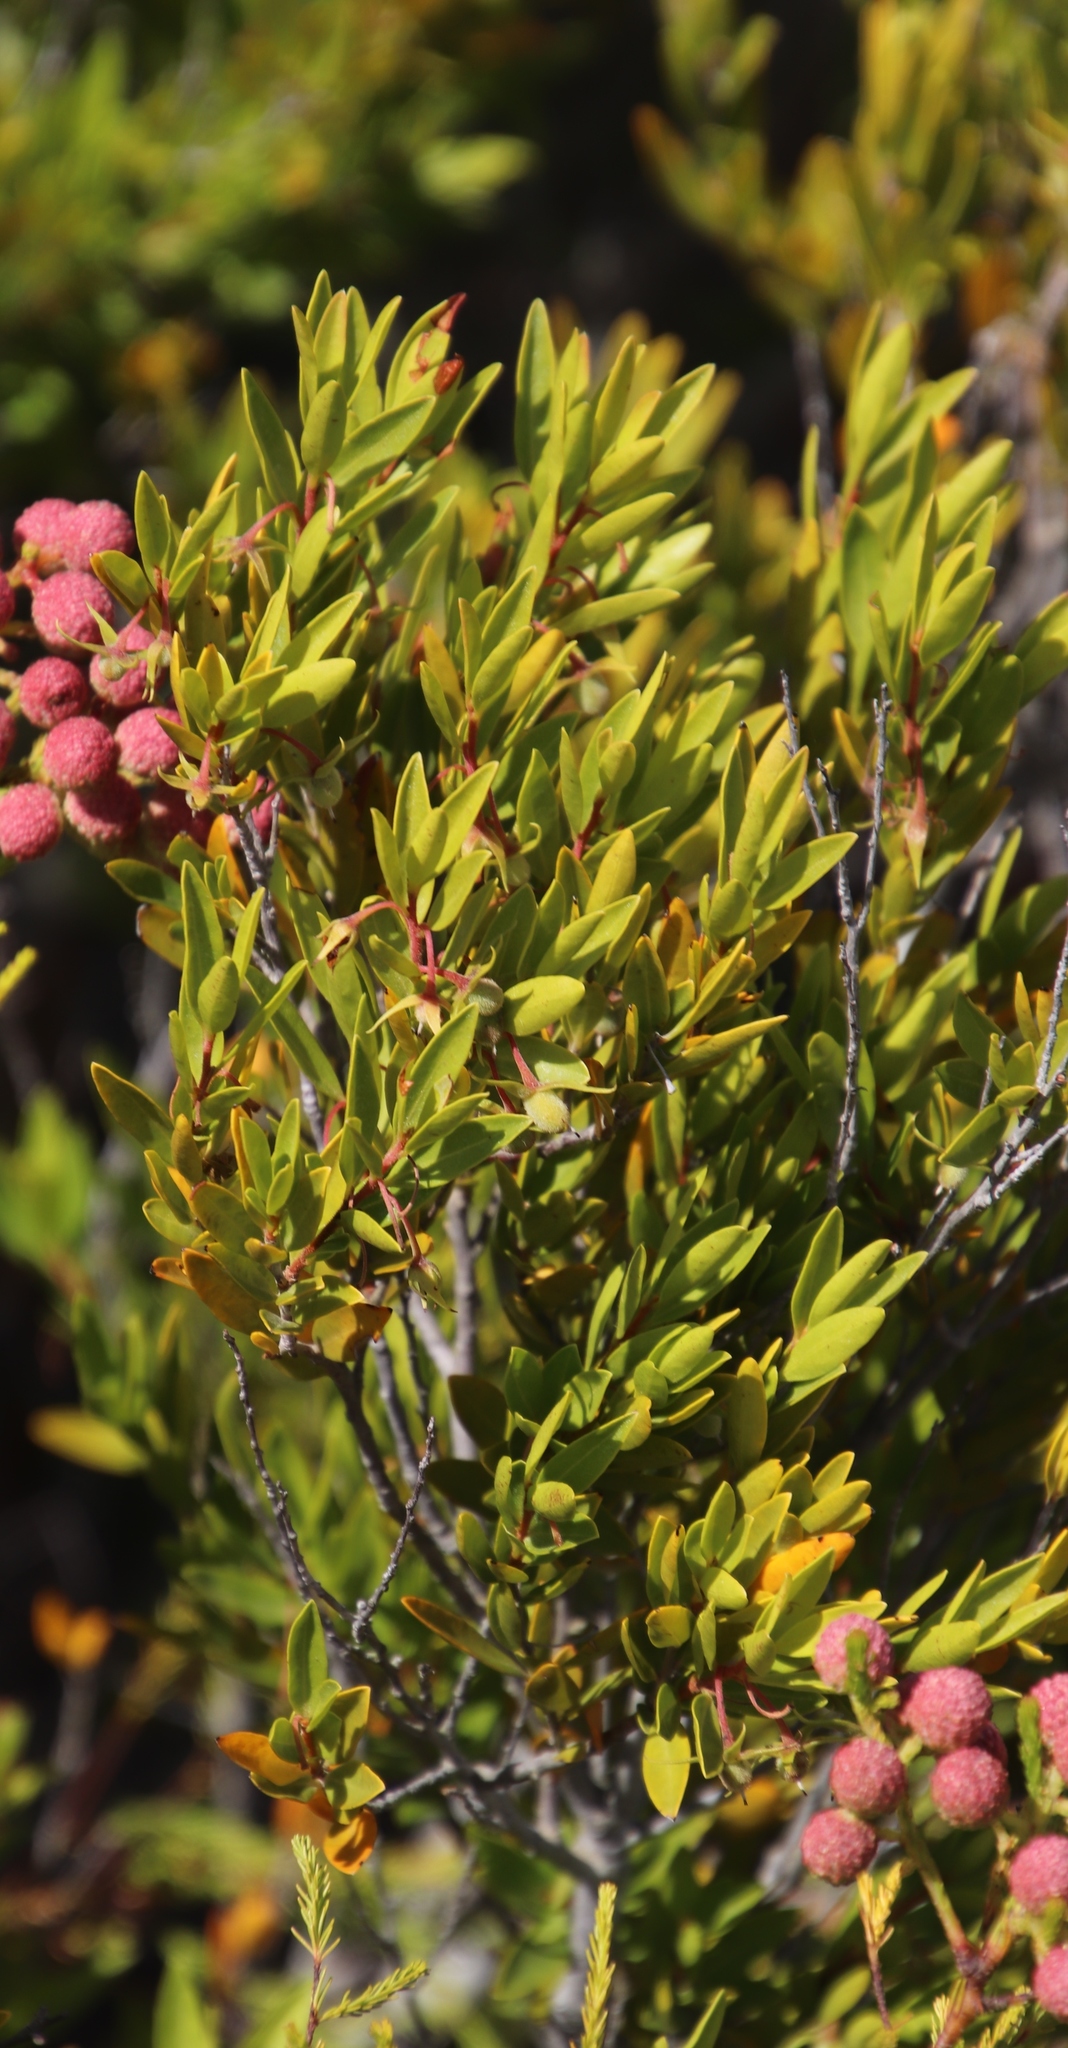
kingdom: Plantae
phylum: Tracheophyta
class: Magnoliopsida
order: Ericales
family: Ebenaceae
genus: Diospyros
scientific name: Diospyros glabra
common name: Fynbos star apple
